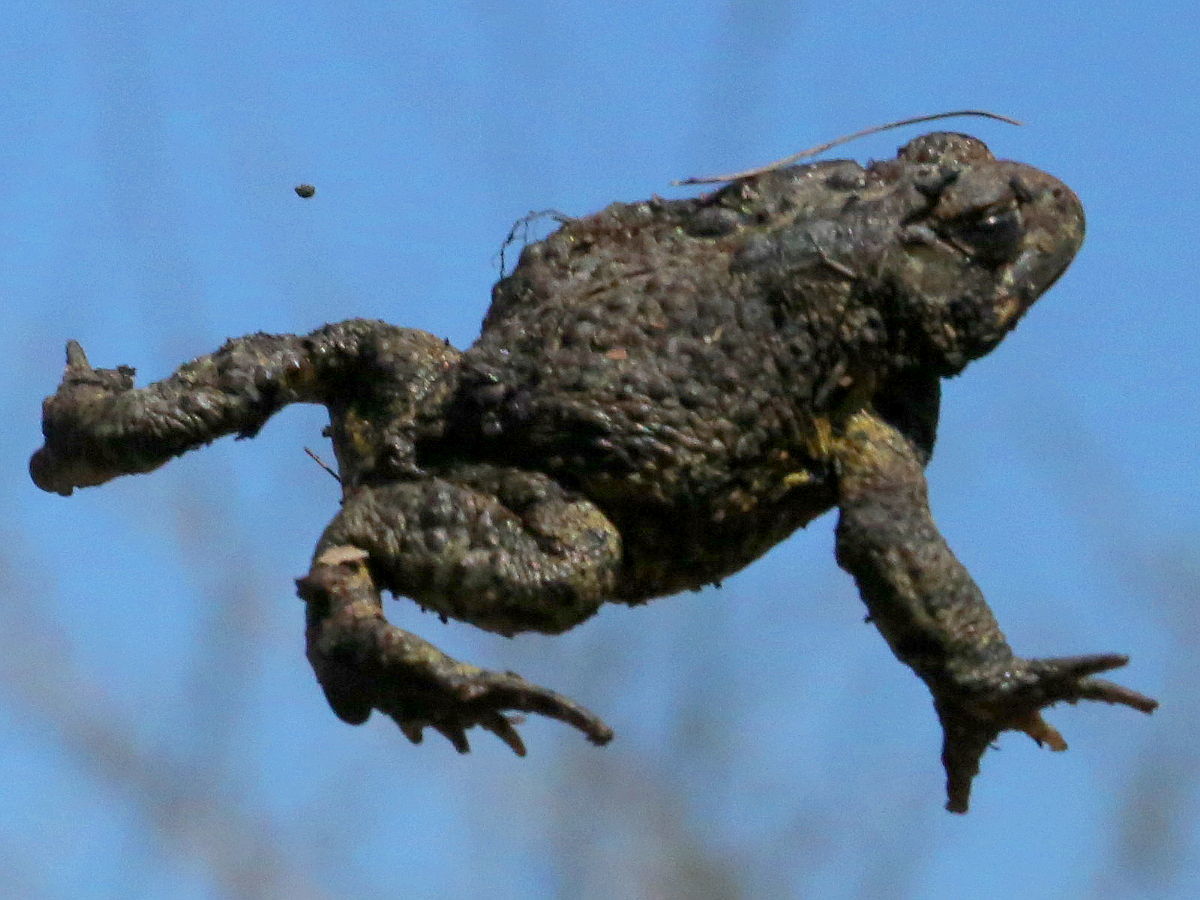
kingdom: Animalia
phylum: Chordata
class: Amphibia
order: Anura
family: Bufonidae
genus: Anaxyrus
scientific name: Anaxyrus americanus
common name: American toad
